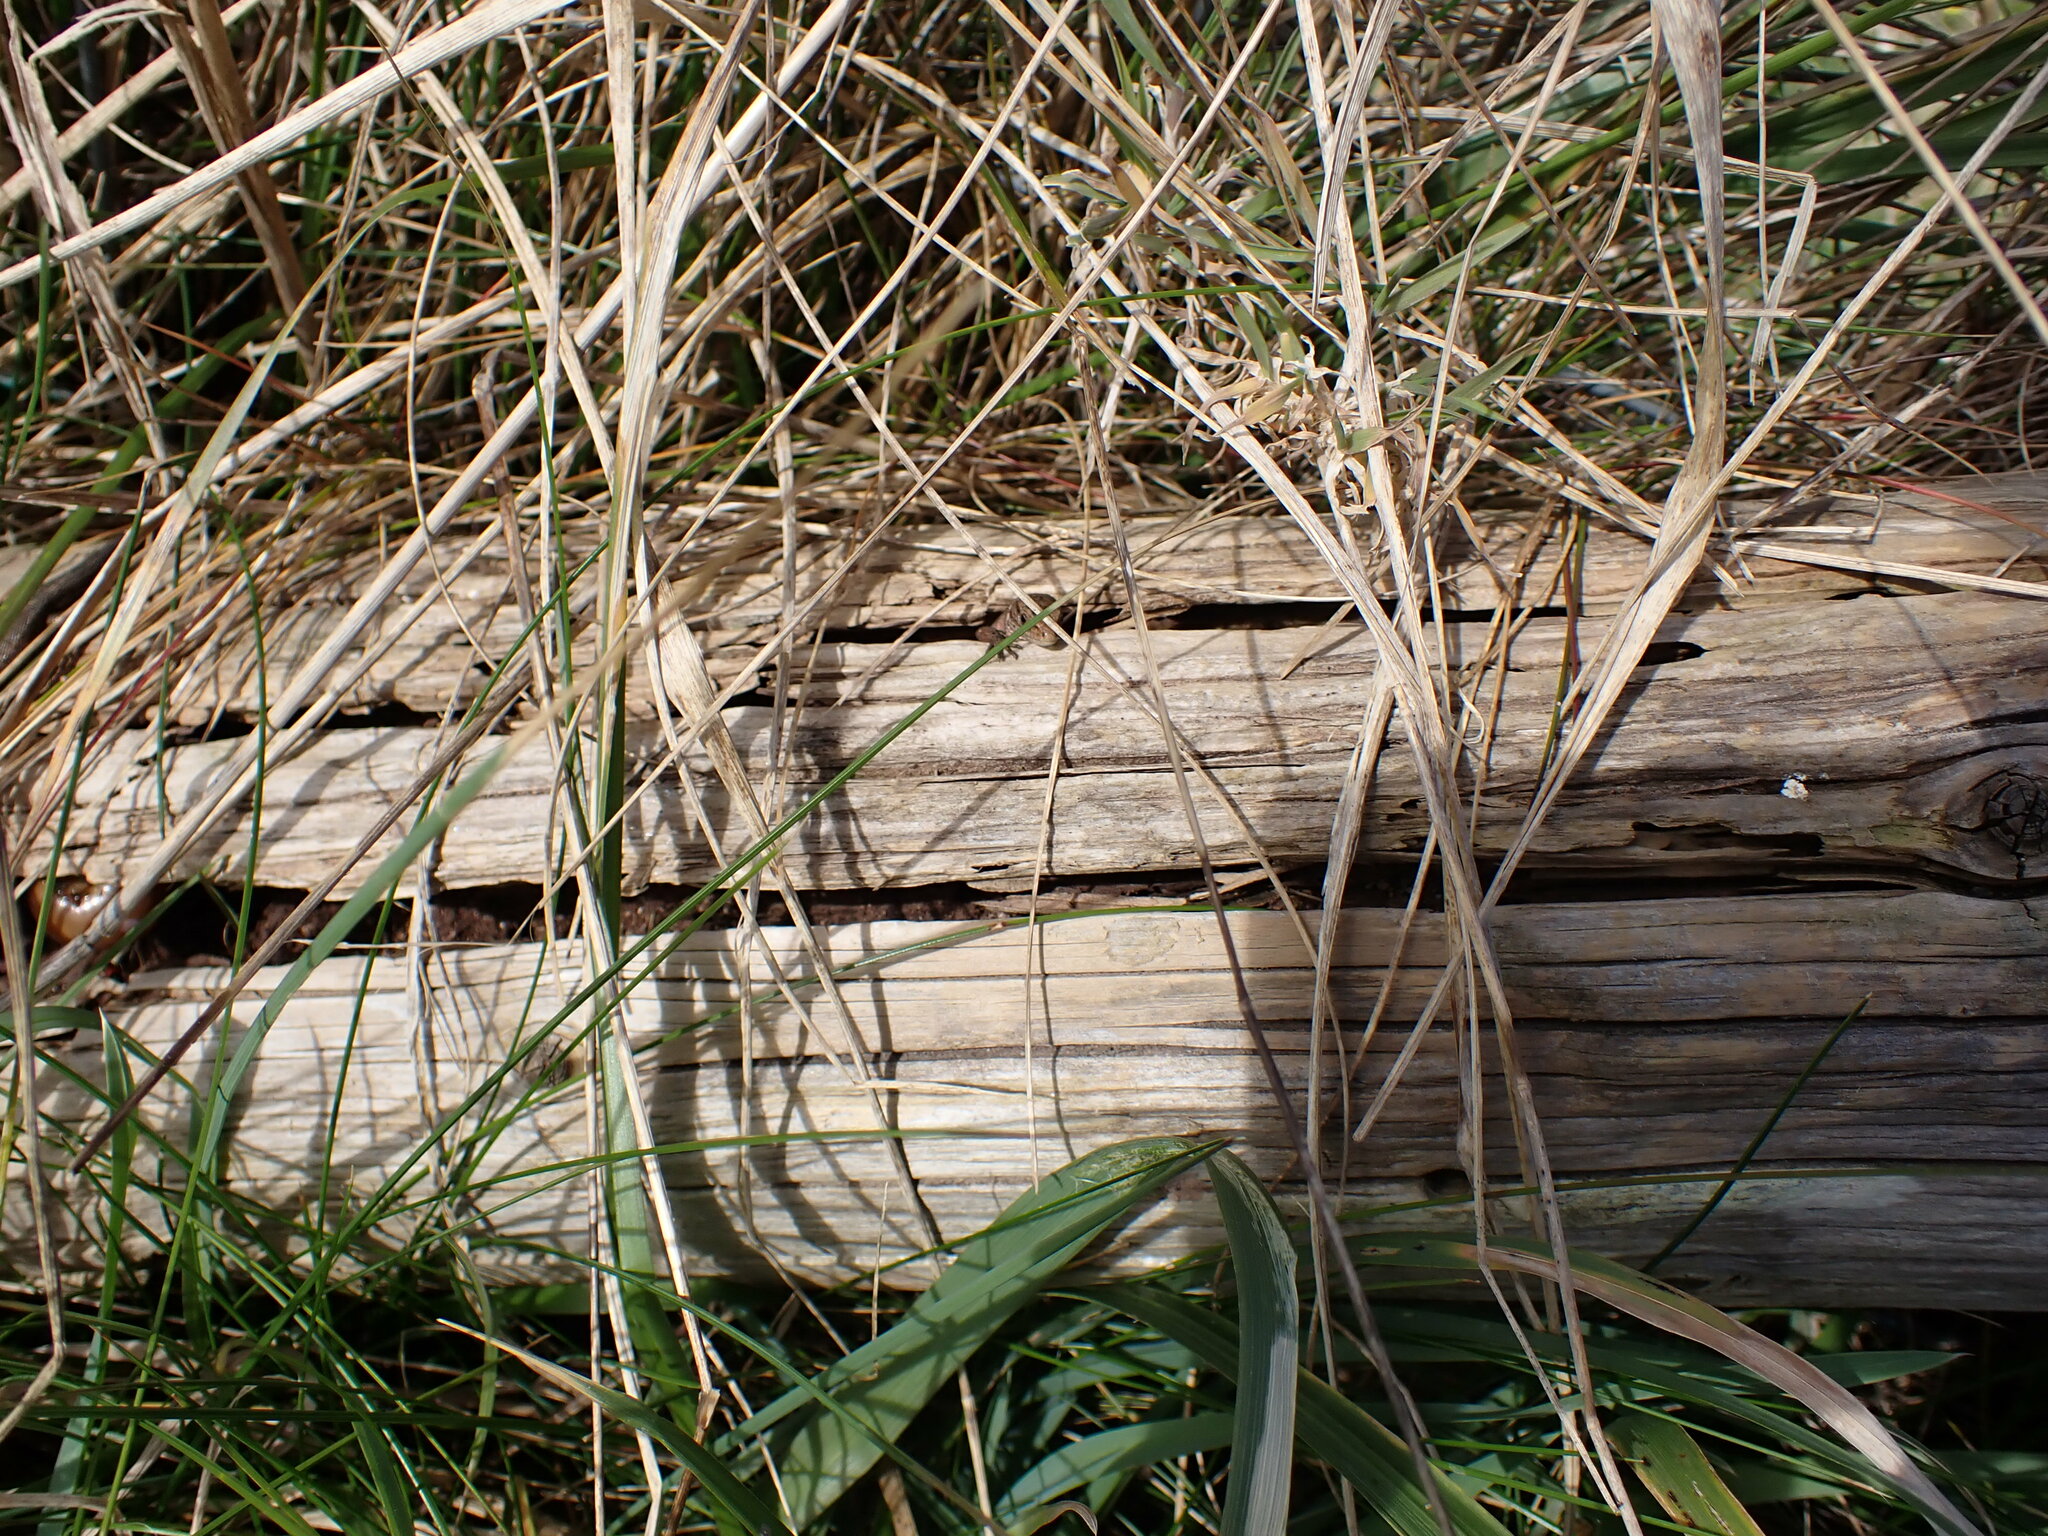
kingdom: Animalia
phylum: Chordata
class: Squamata
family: Lacertidae
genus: Zootoca
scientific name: Zootoca vivipara
